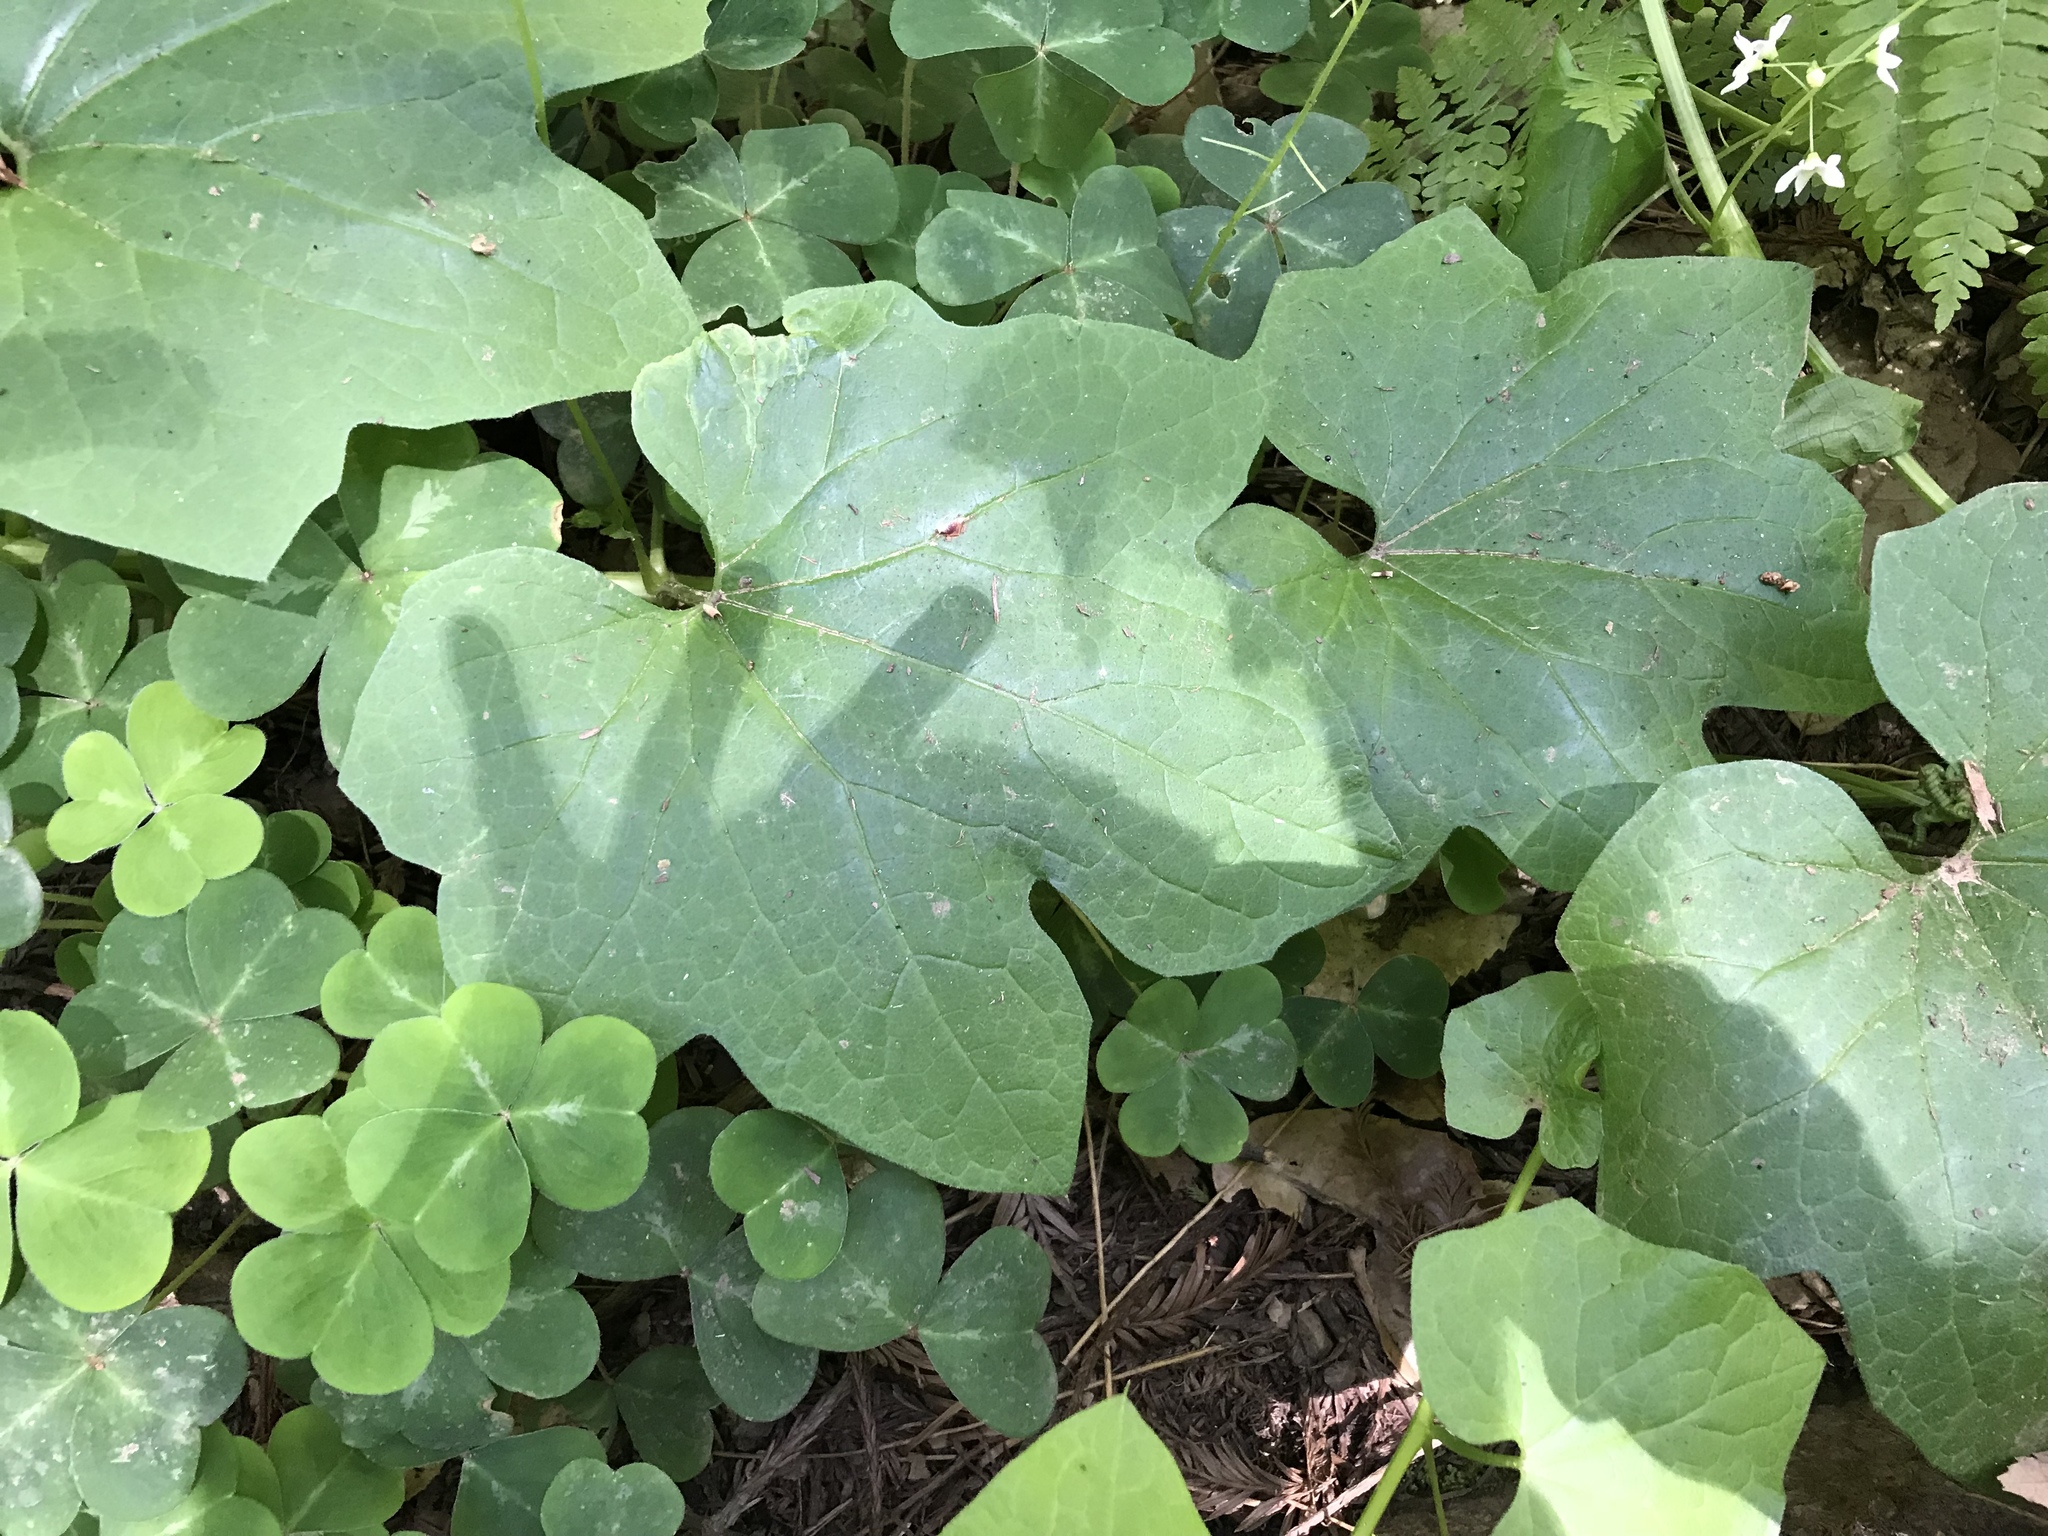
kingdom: Plantae
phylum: Tracheophyta
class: Magnoliopsida
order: Cucurbitales
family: Cucurbitaceae
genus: Marah
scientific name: Marah oregana
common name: Coastal manroot
